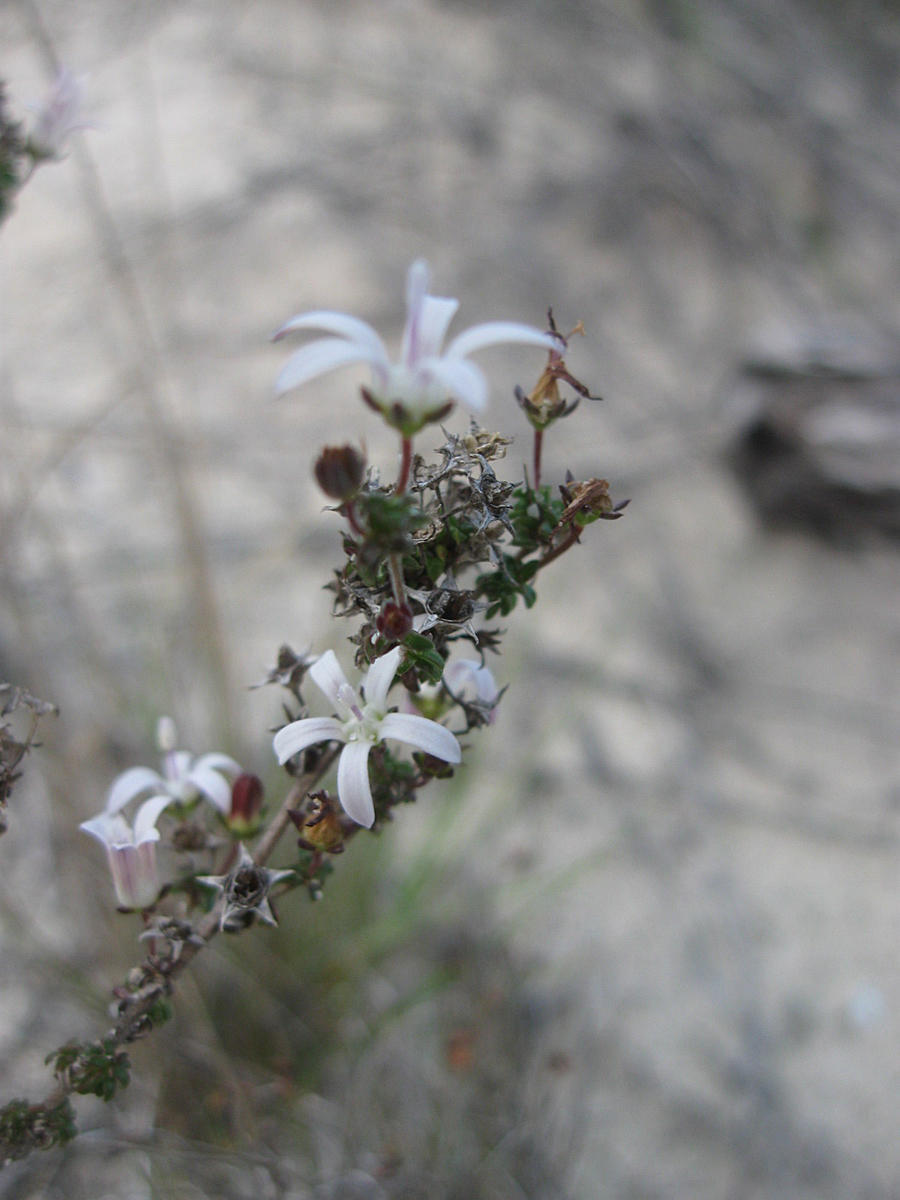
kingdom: Plantae
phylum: Tracheophyta
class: Magnoliopsida
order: Asterales
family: Campanulaceae
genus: Wahlenbergia
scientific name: Wahlenbergia tenella
